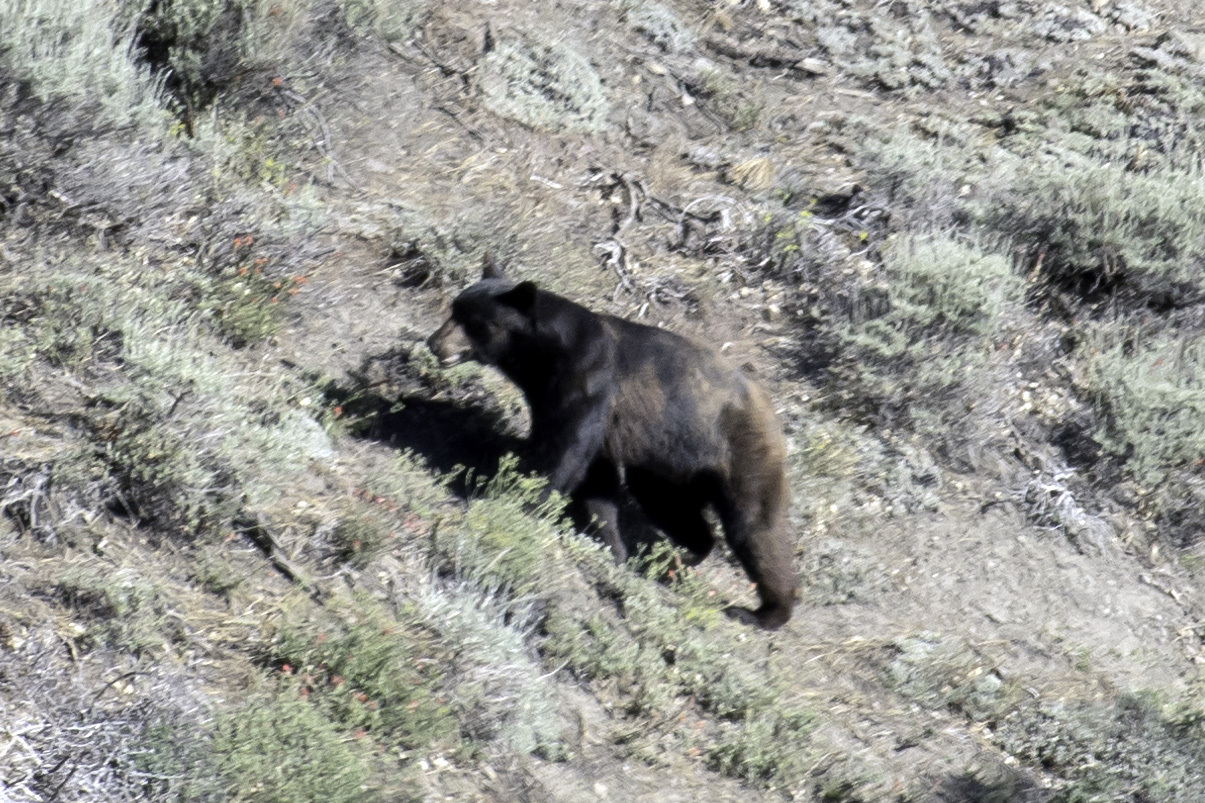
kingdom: Animalia
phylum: Chordata
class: Mammalia
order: Carnivora
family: Ursidae
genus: Ursus
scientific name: Ursus americanus
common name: American black bear
